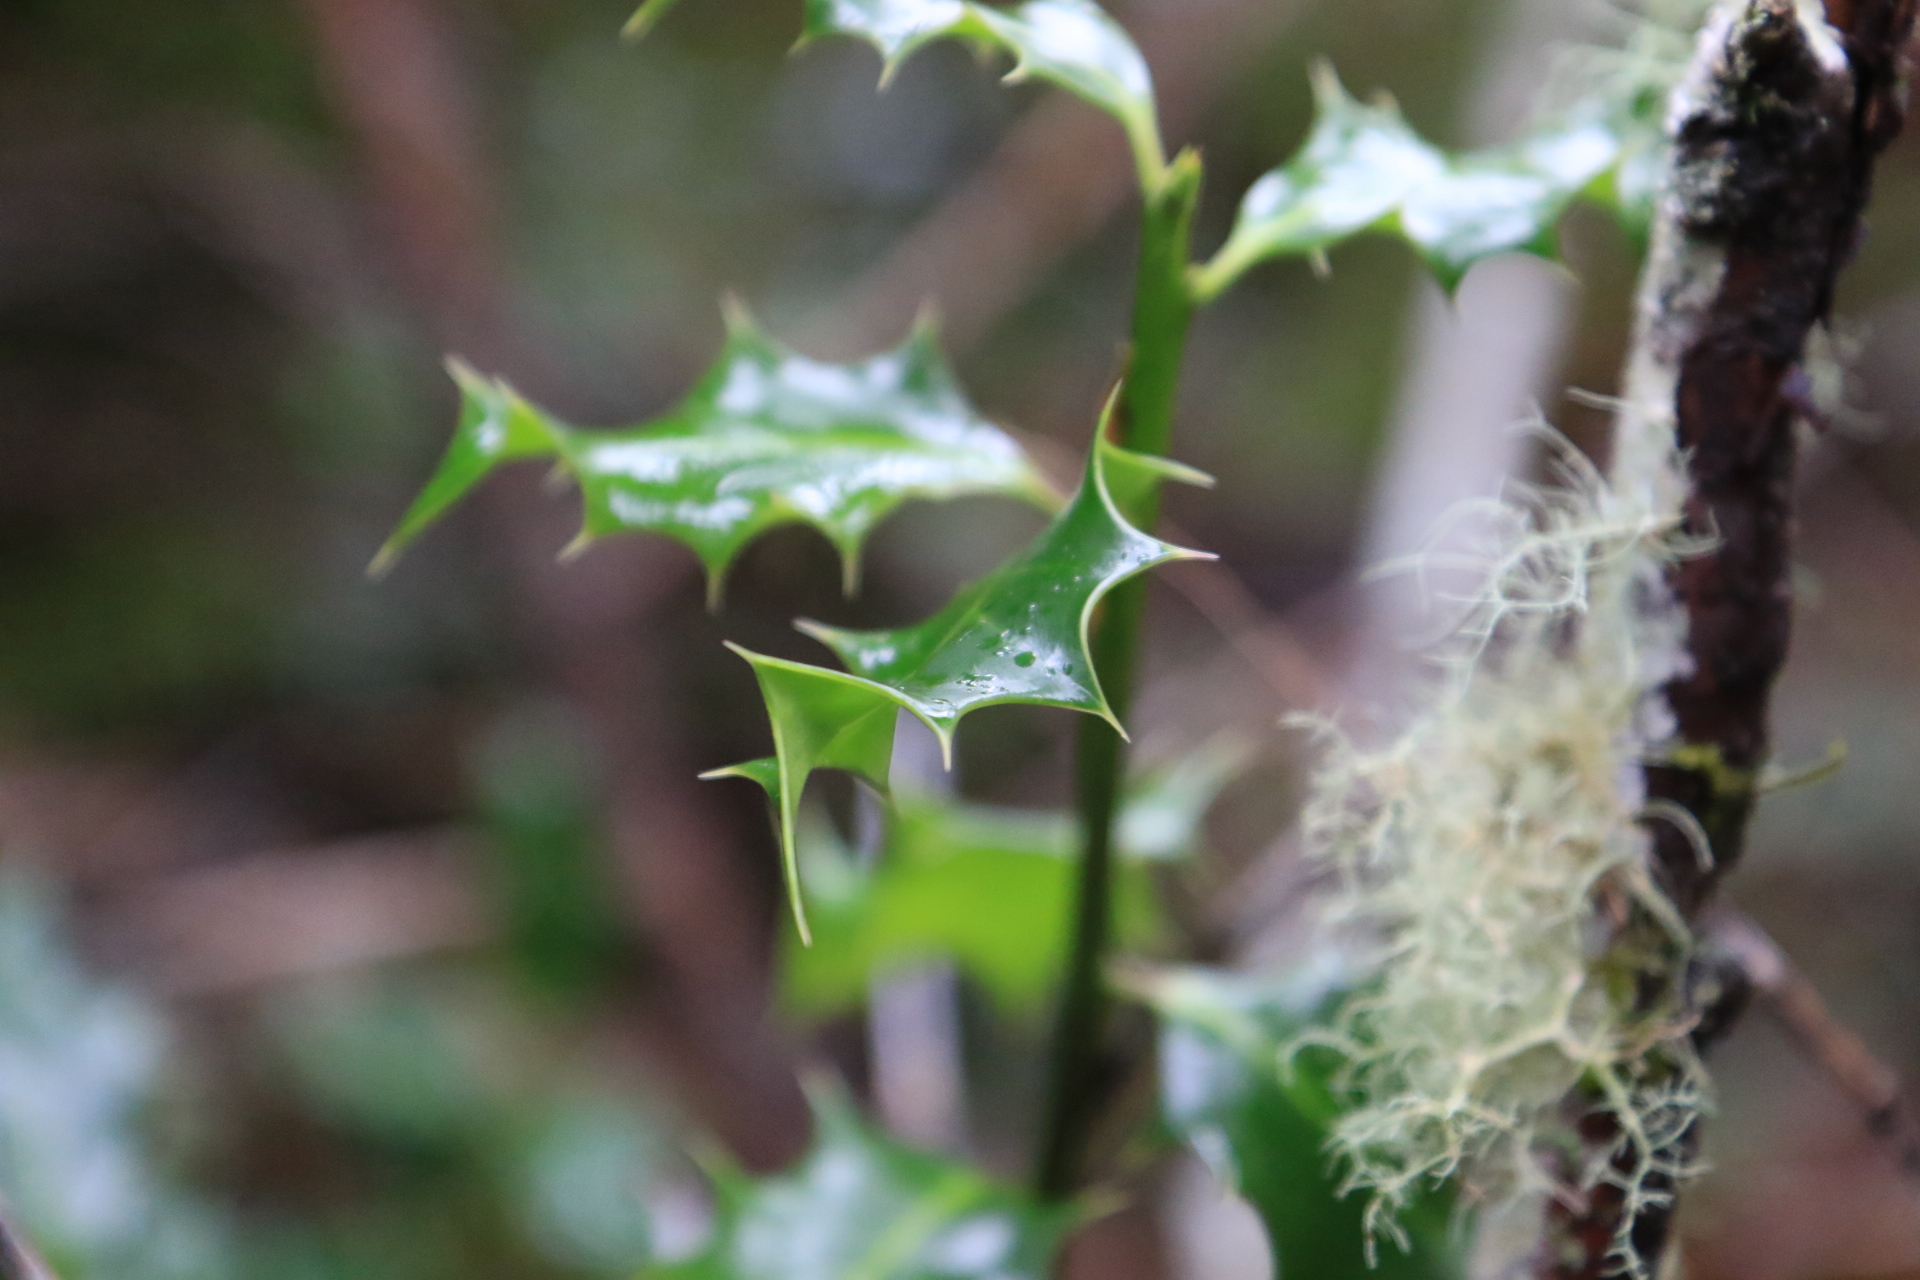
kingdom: Plantae
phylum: Tracheophyta
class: Magnoliopsida
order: Aquifoliales
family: Aquifoliaceae
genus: Ilex
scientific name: Ilex aquifolium
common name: English holly
